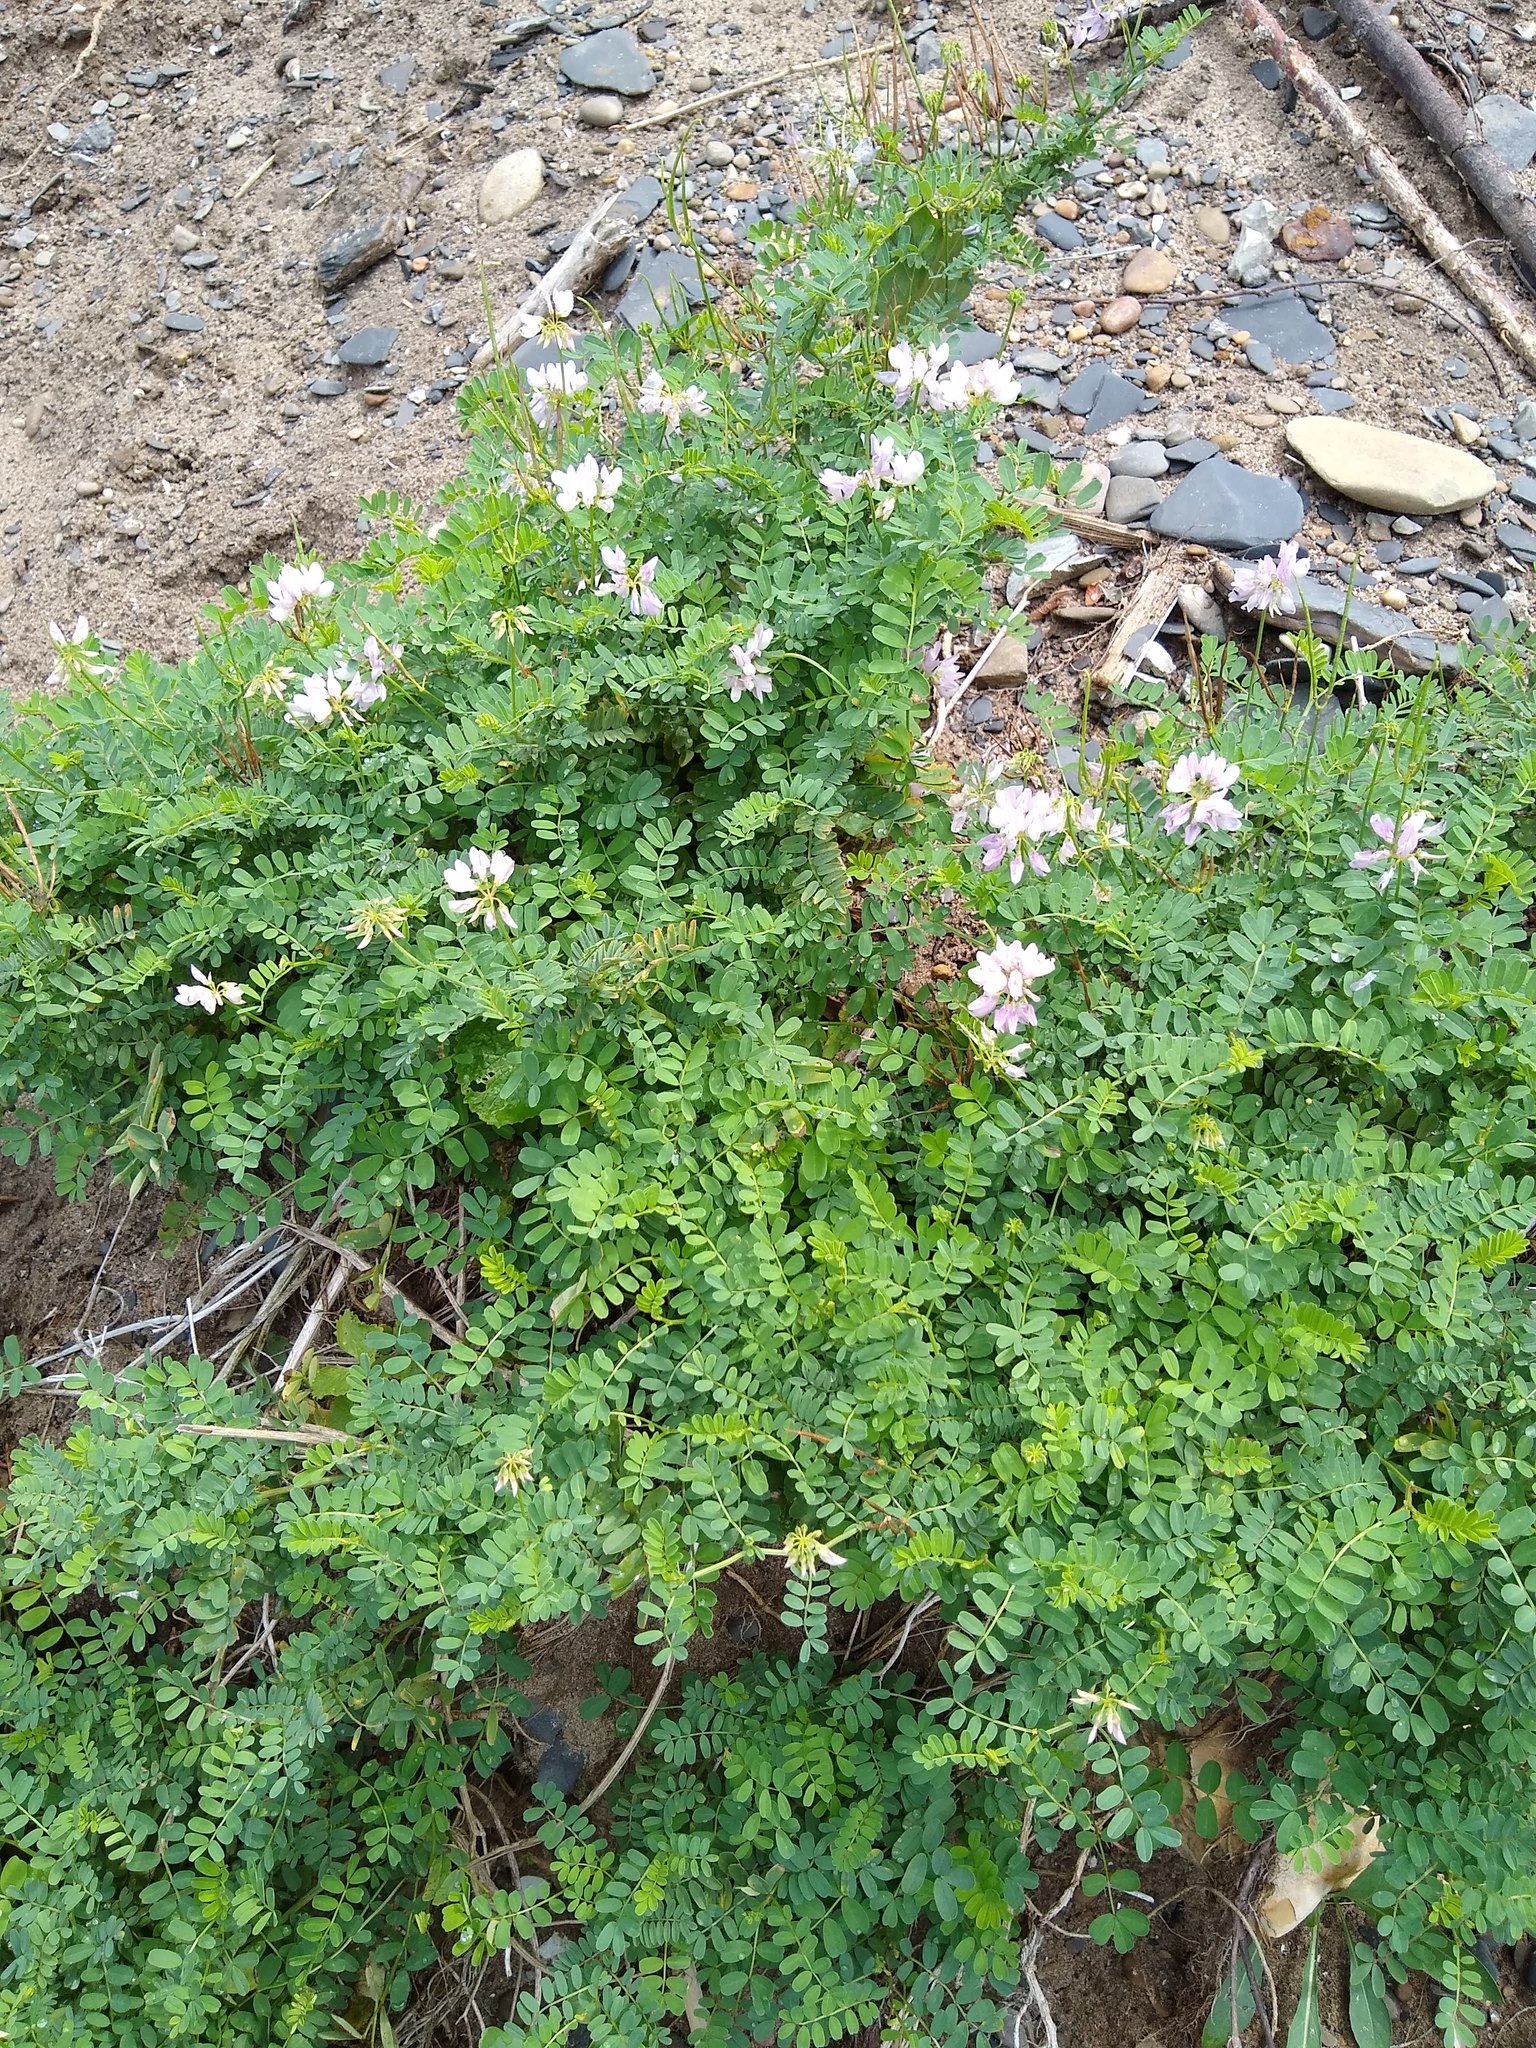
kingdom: Plantae
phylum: Tracheophyta
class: Magnoliopsida
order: Fabales
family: Fabaceae
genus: Coronilla
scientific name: Coronilla varia
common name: Crownvetch
